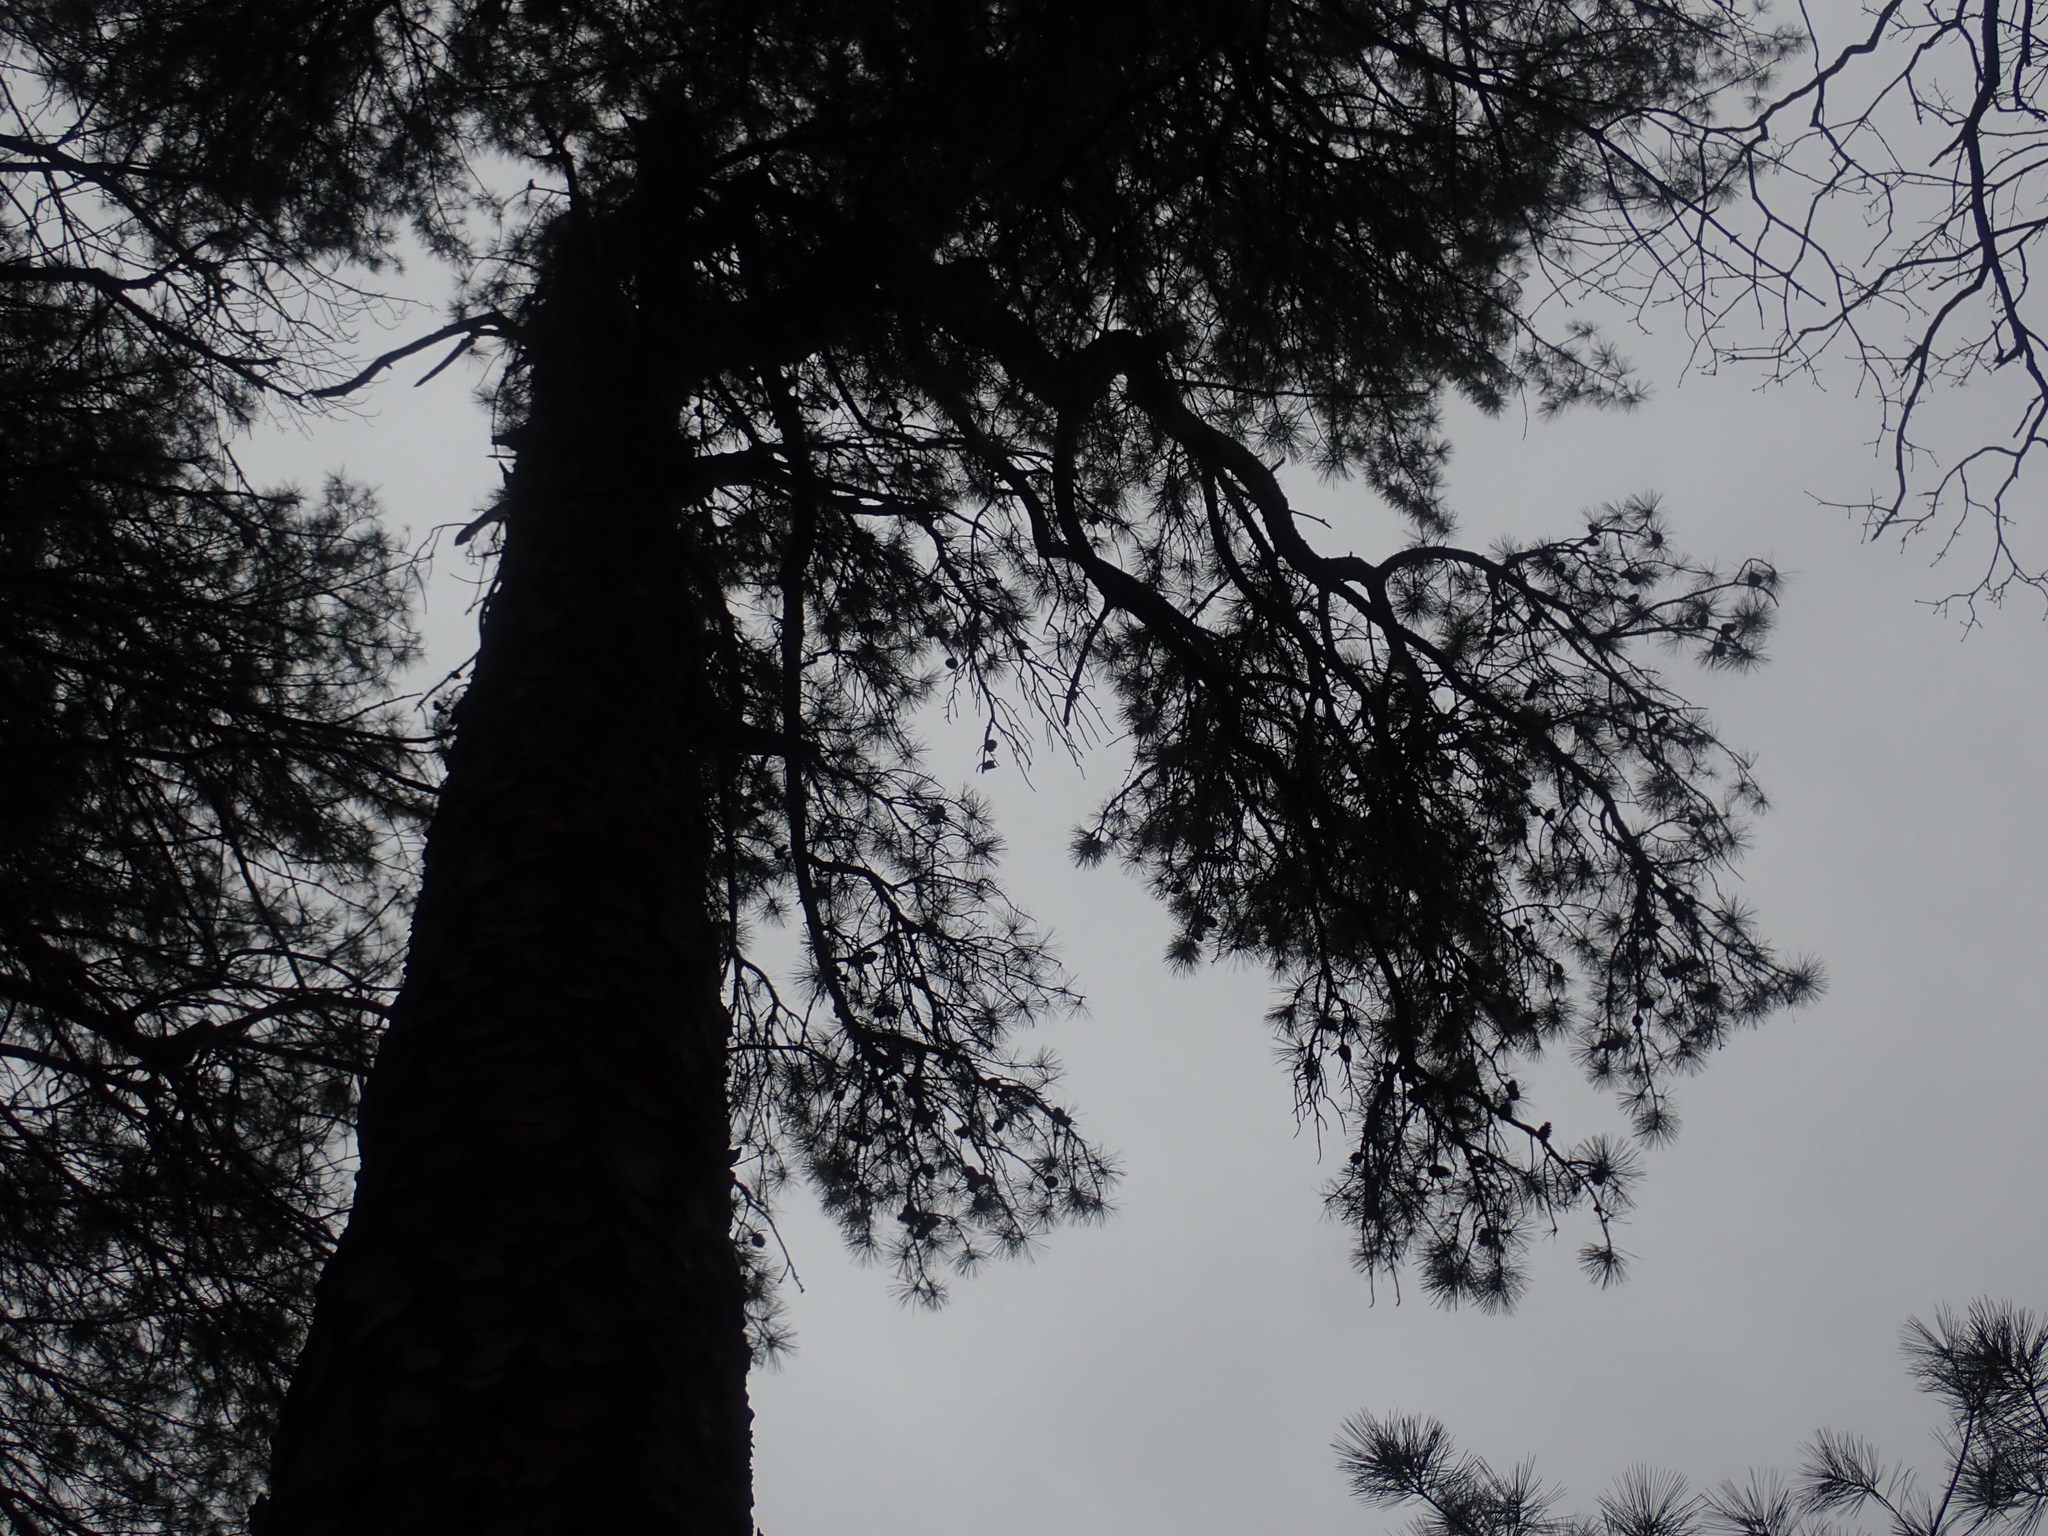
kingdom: Plantae
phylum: Tracheophyta
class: Pinopsida
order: Pinales
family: Pinaceae
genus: Pinus
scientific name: Pinus rigida
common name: Pitch pine
